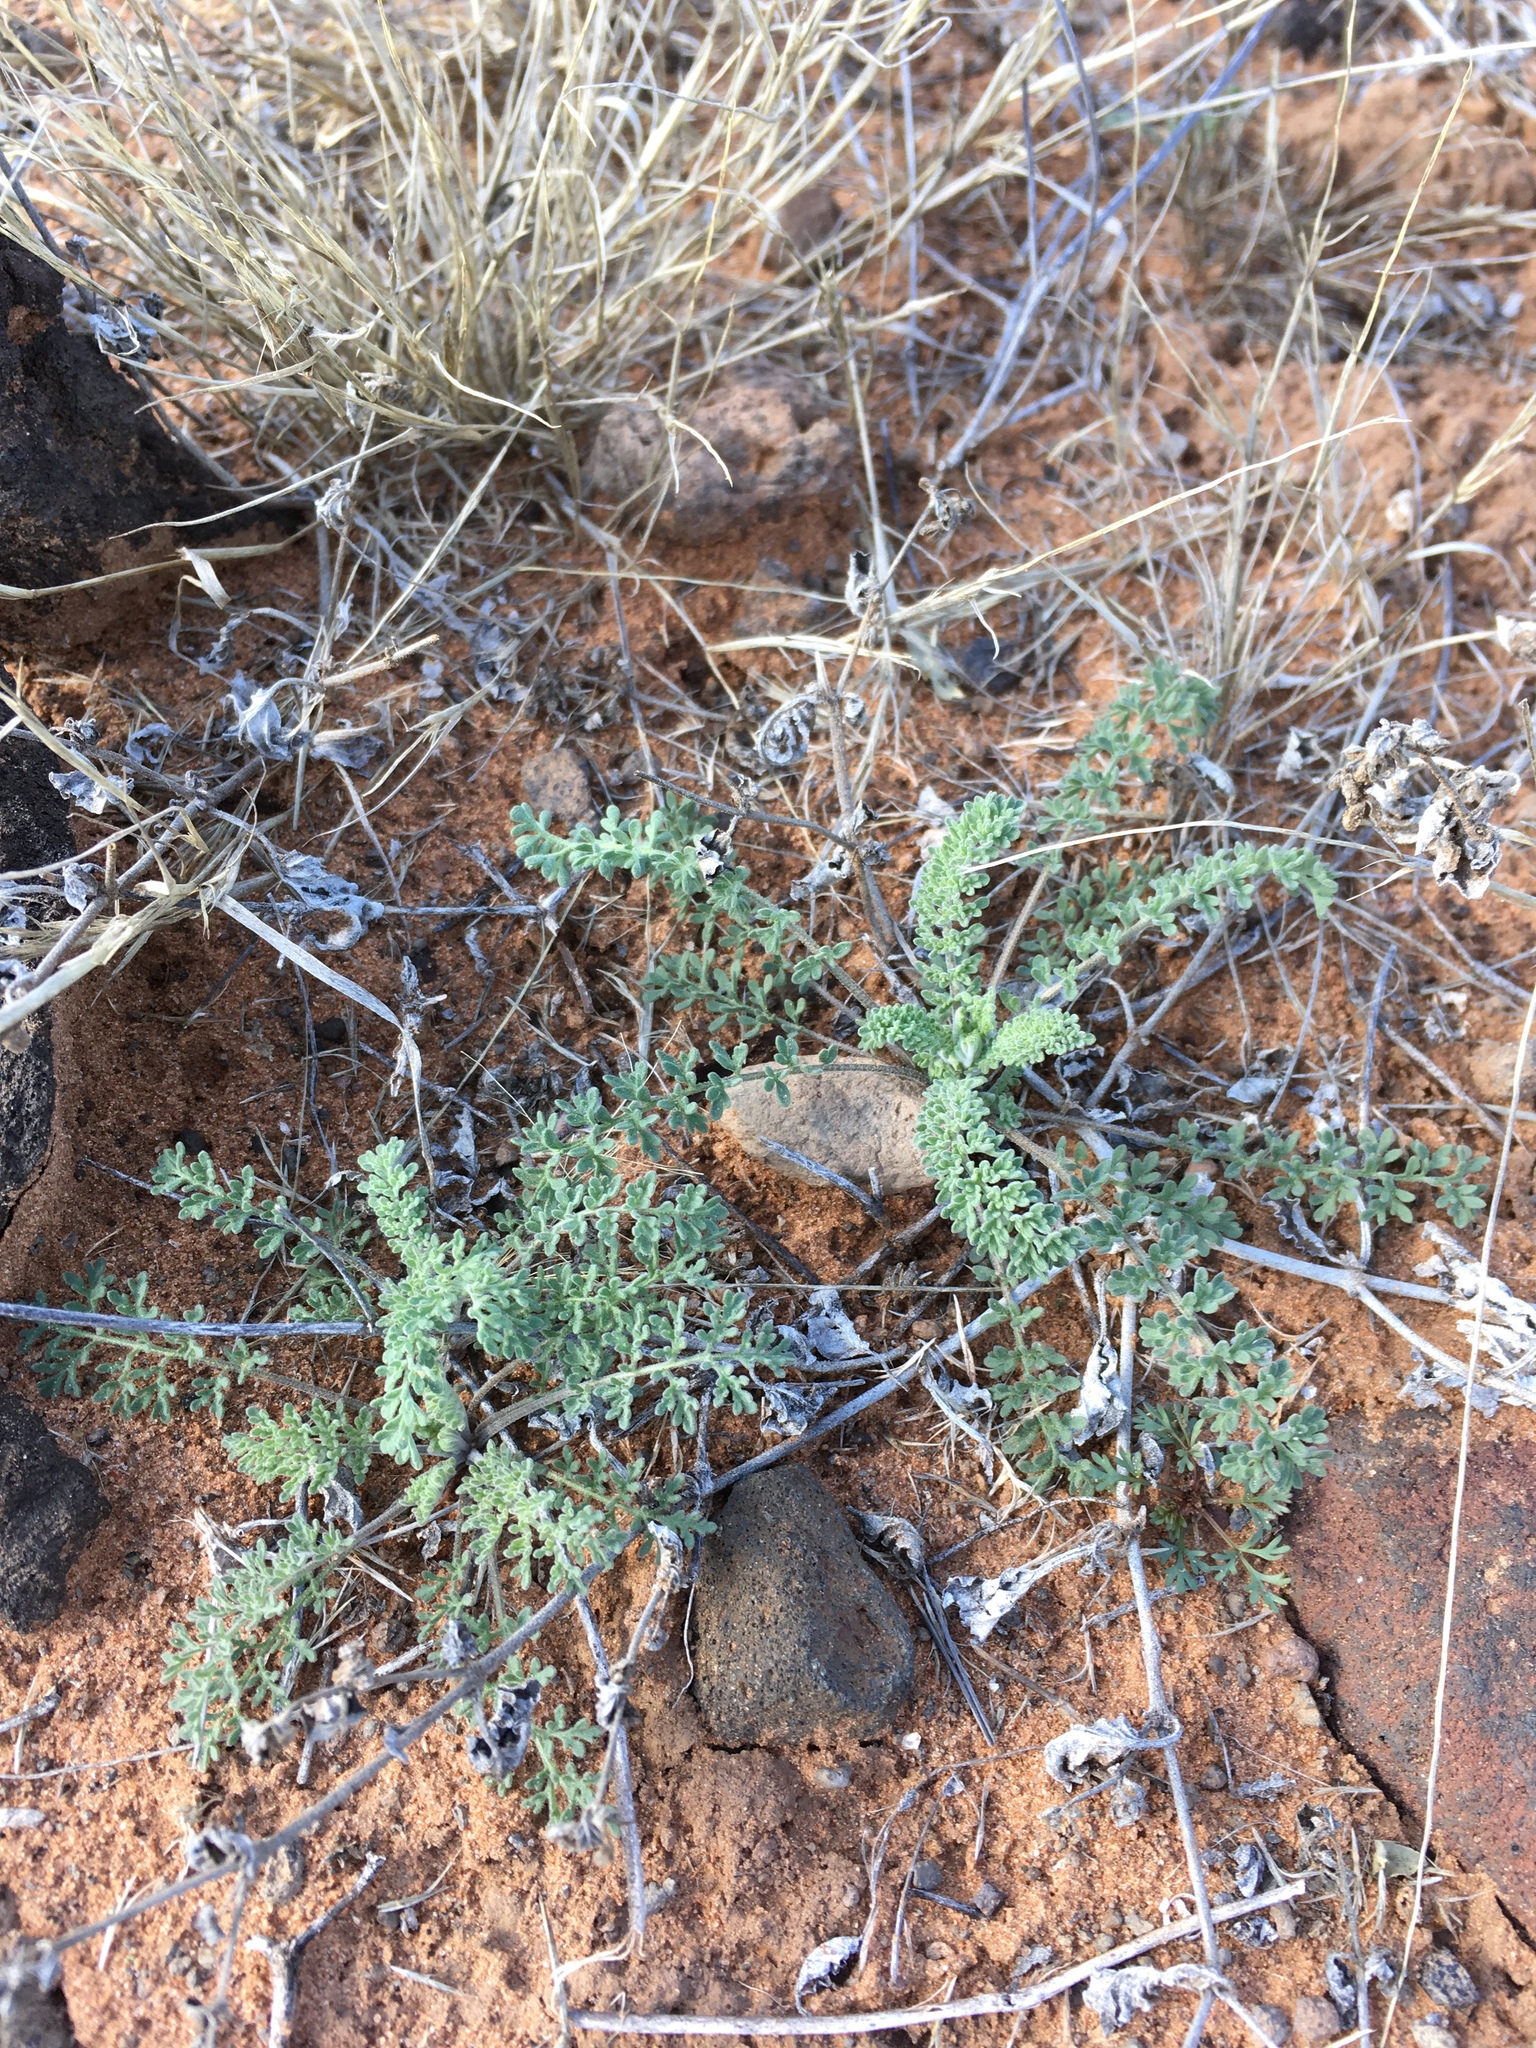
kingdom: Plantae
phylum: Tracheophyta
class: Magnoliopsida
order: Brassicales
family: Brassicaceae
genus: Descurainia
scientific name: Descurainia pinnata
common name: Western tansy mustard
